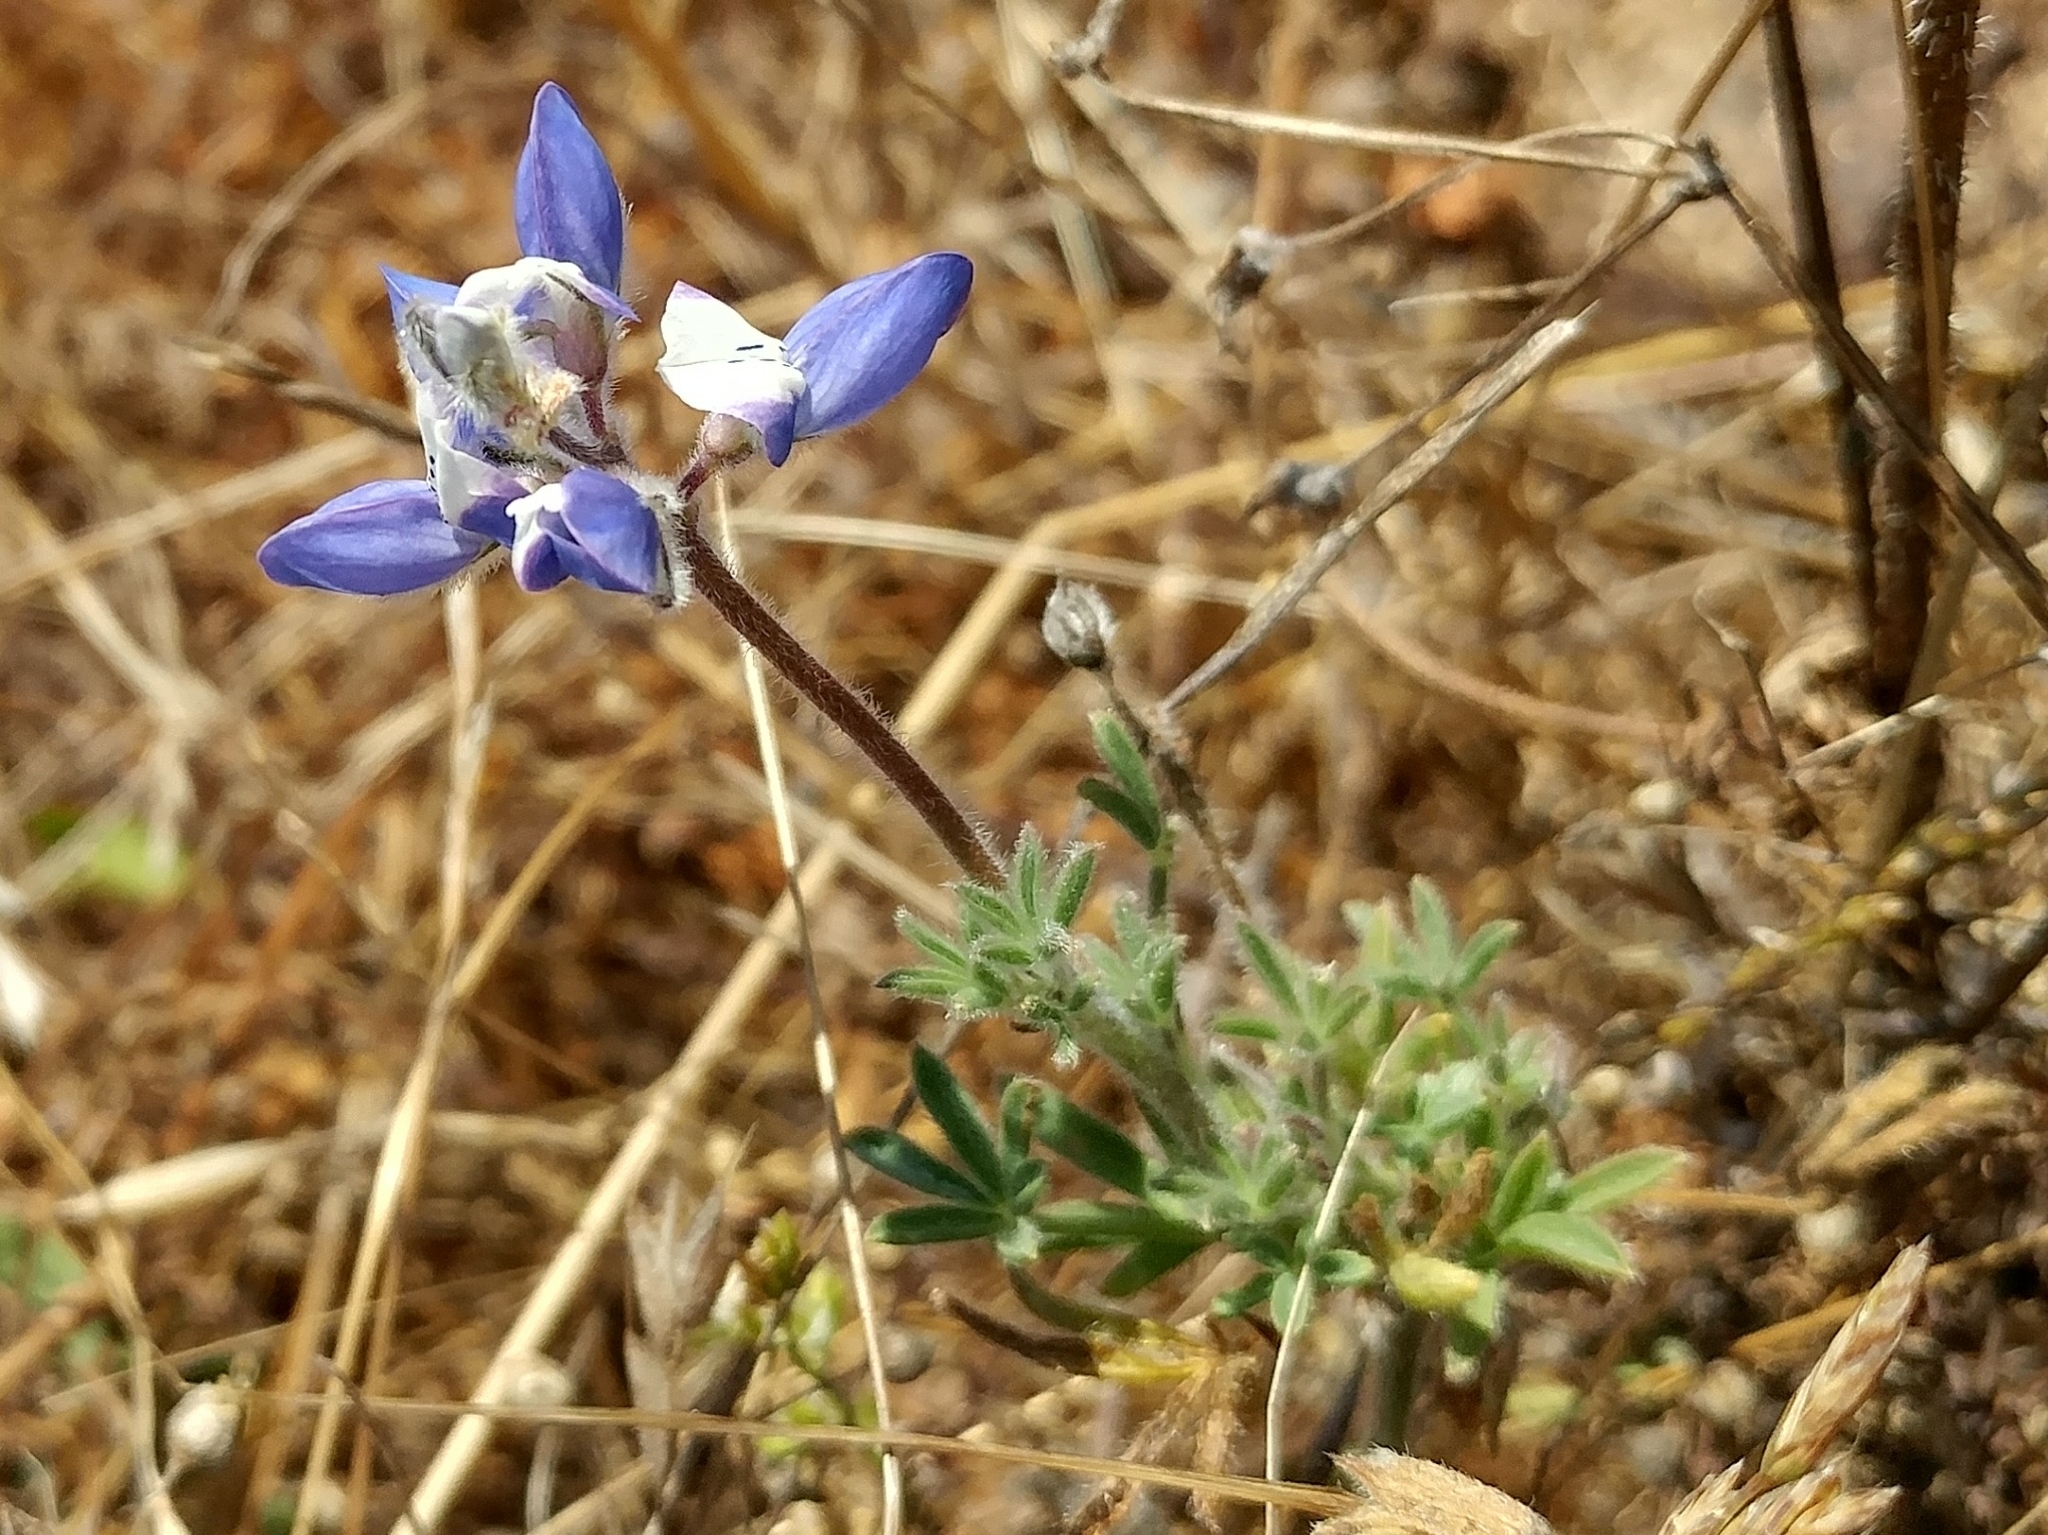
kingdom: Plantae
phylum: Tracheophyta
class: Magnoliopsida
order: Fabales
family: Fabaceae
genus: Lupinus
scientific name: Lupinus bicolor
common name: Miniature lupine
